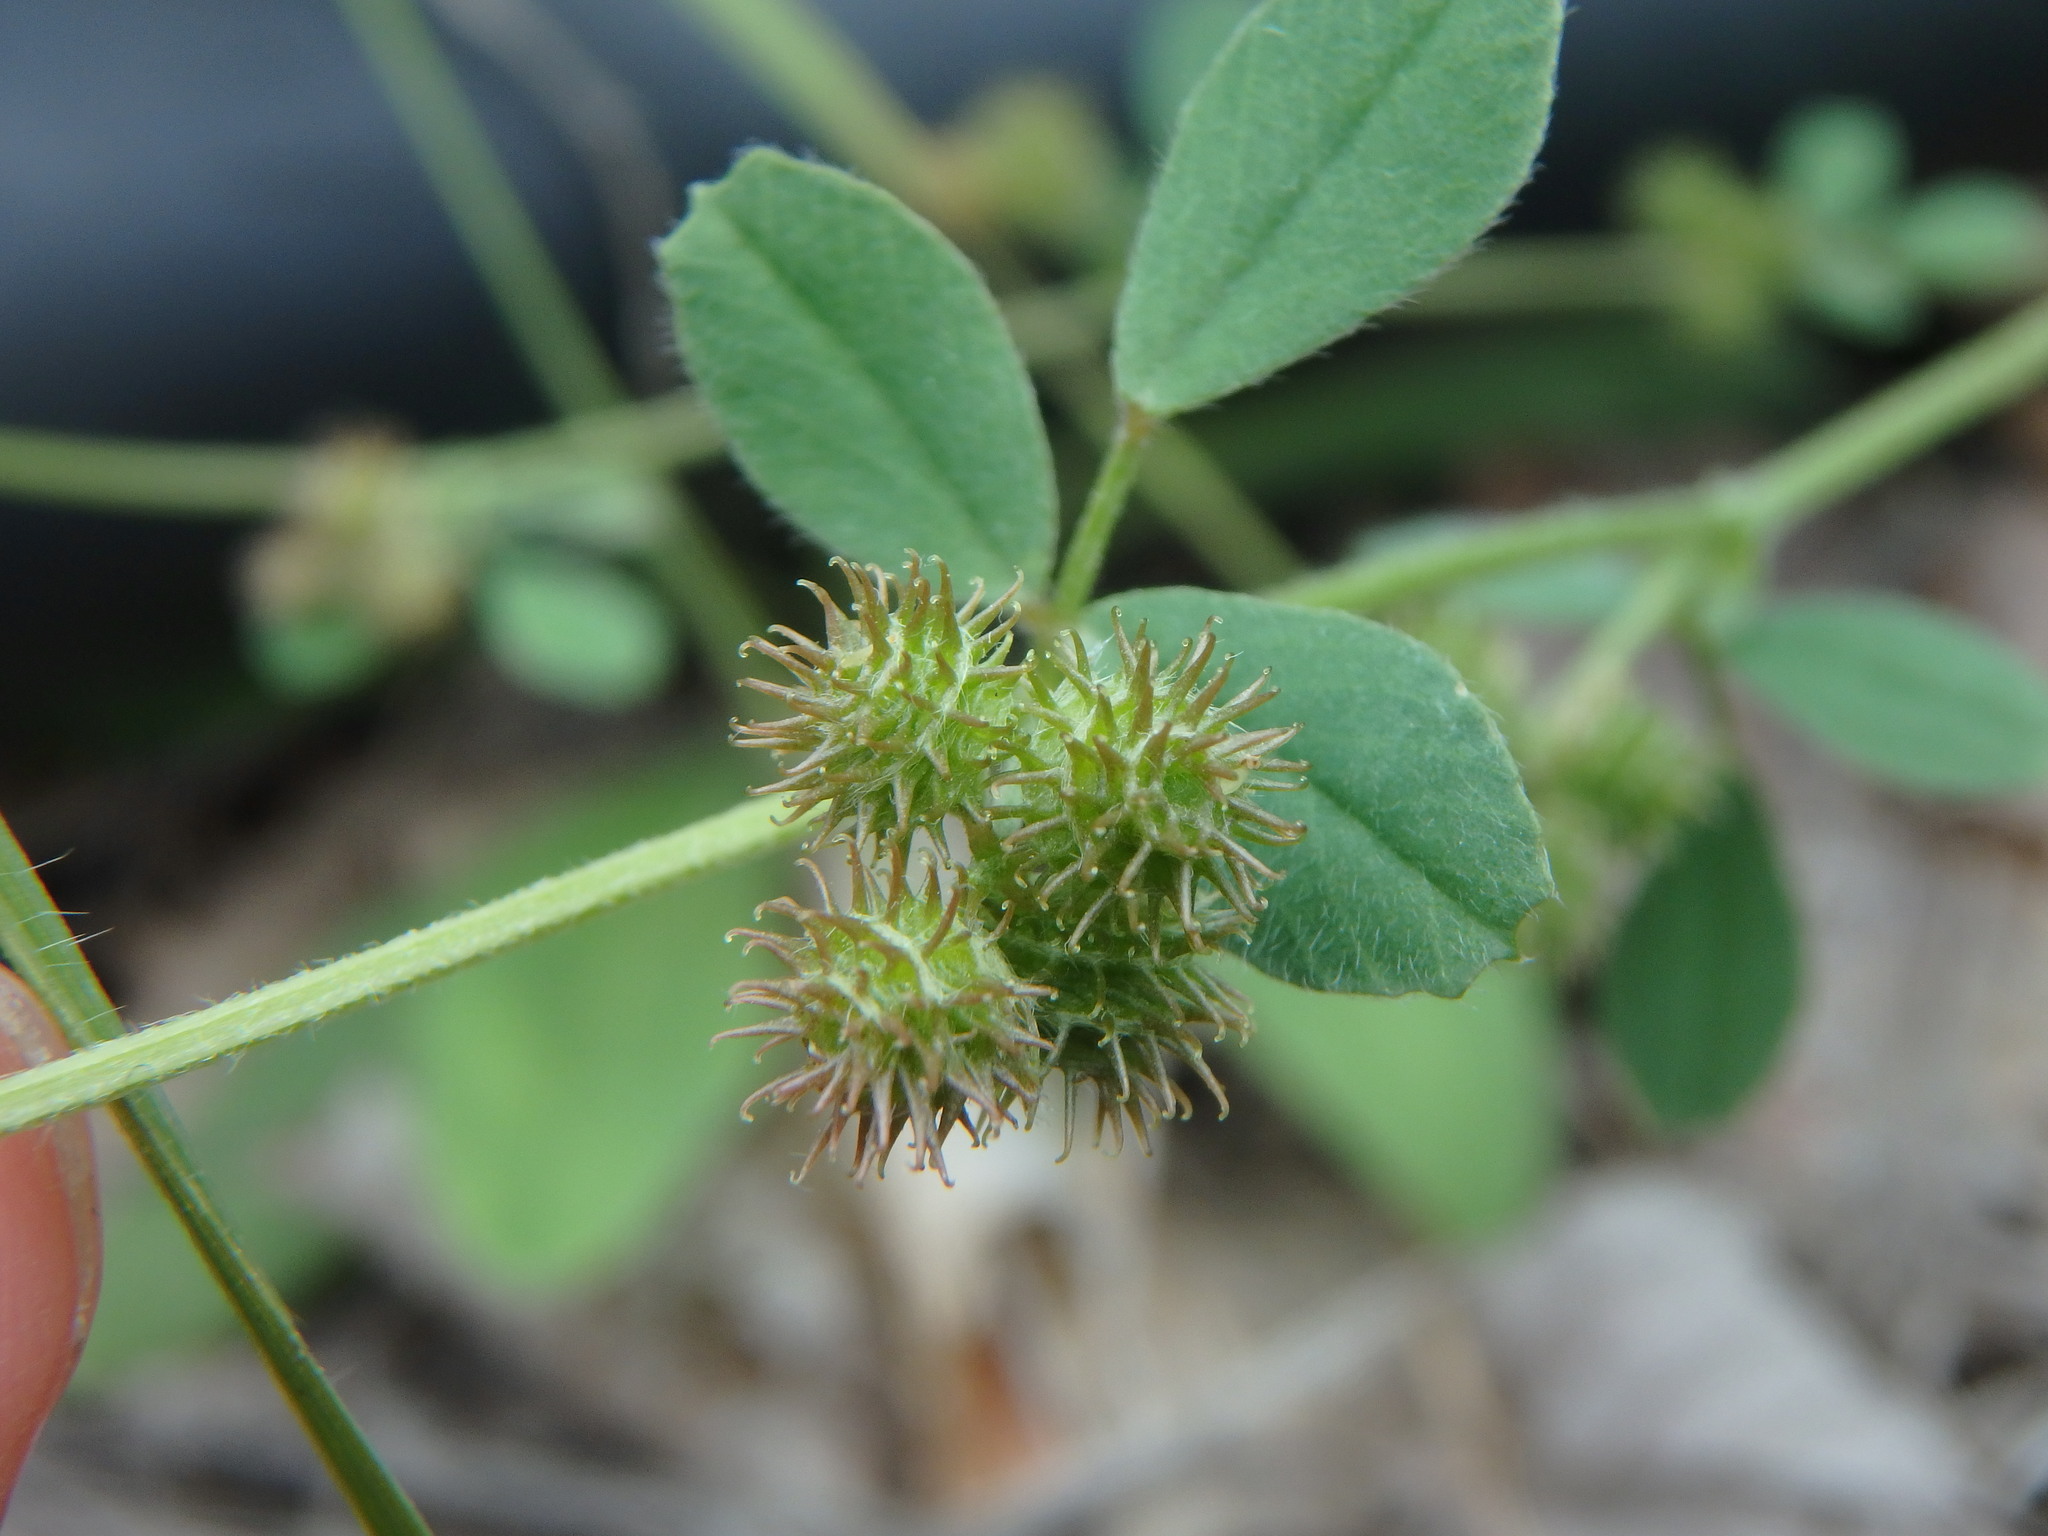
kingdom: Plantae
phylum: Tracheophyta
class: Magnoliopsida
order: Fabales
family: Fabaceae
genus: Medicago
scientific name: Medicago minima
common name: Little bur-clover
